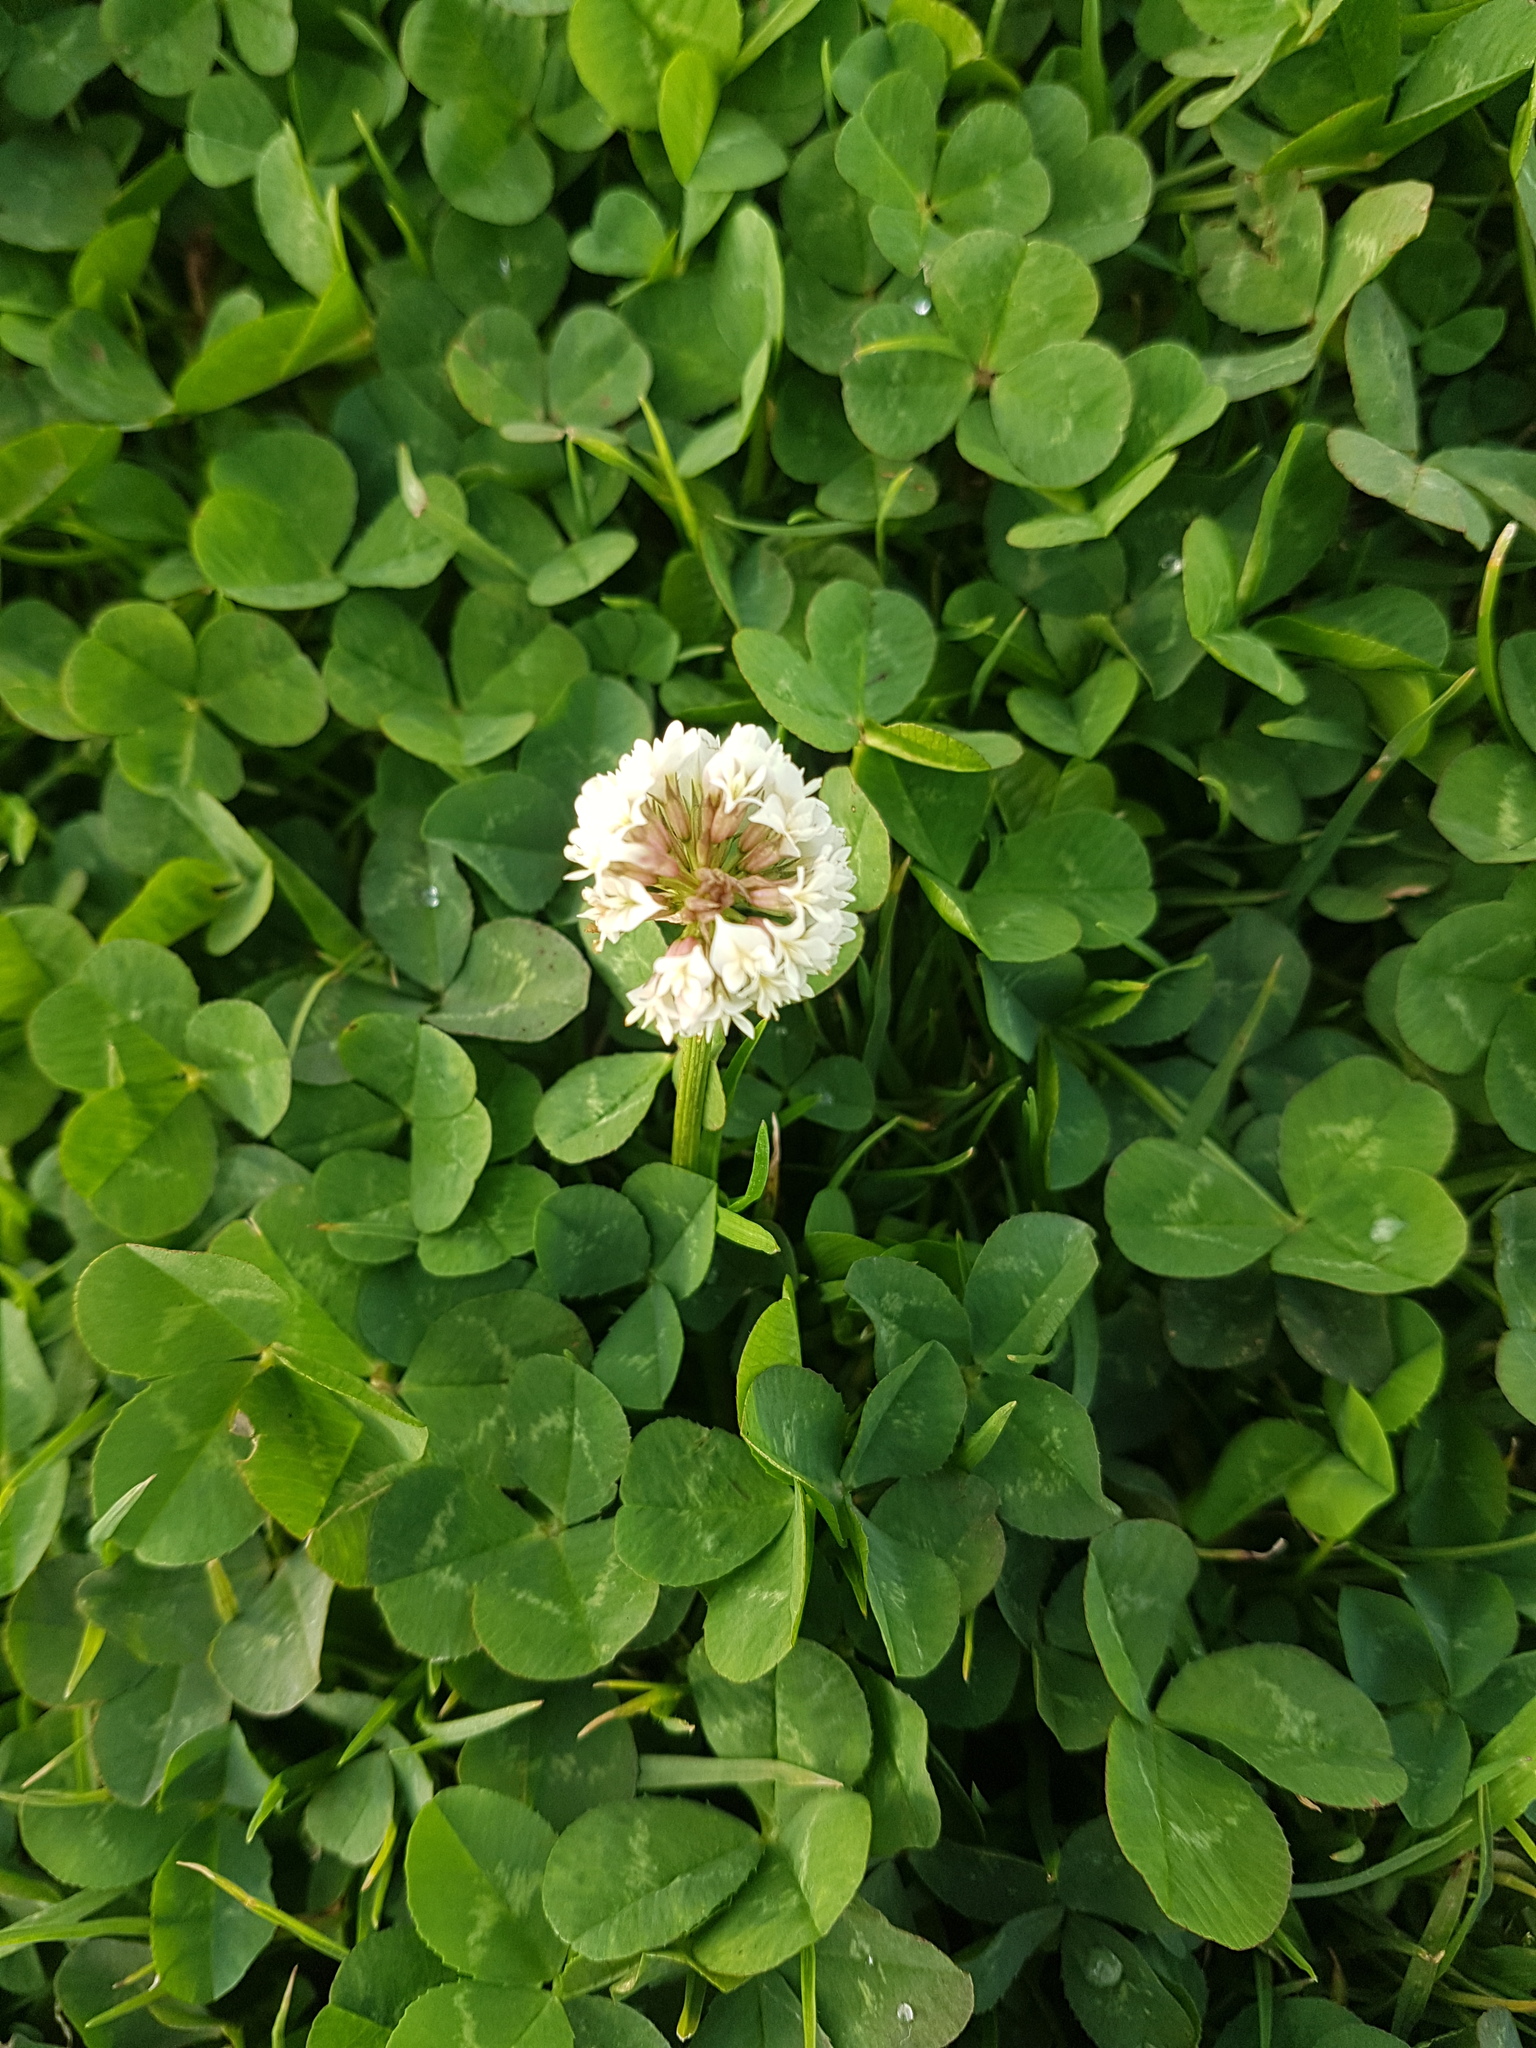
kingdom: Plantae
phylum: Tracheophyta
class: Magnoliopsida
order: Fabales
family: Fabaceae
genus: Trifolium
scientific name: Trifolium repens
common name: White clover
